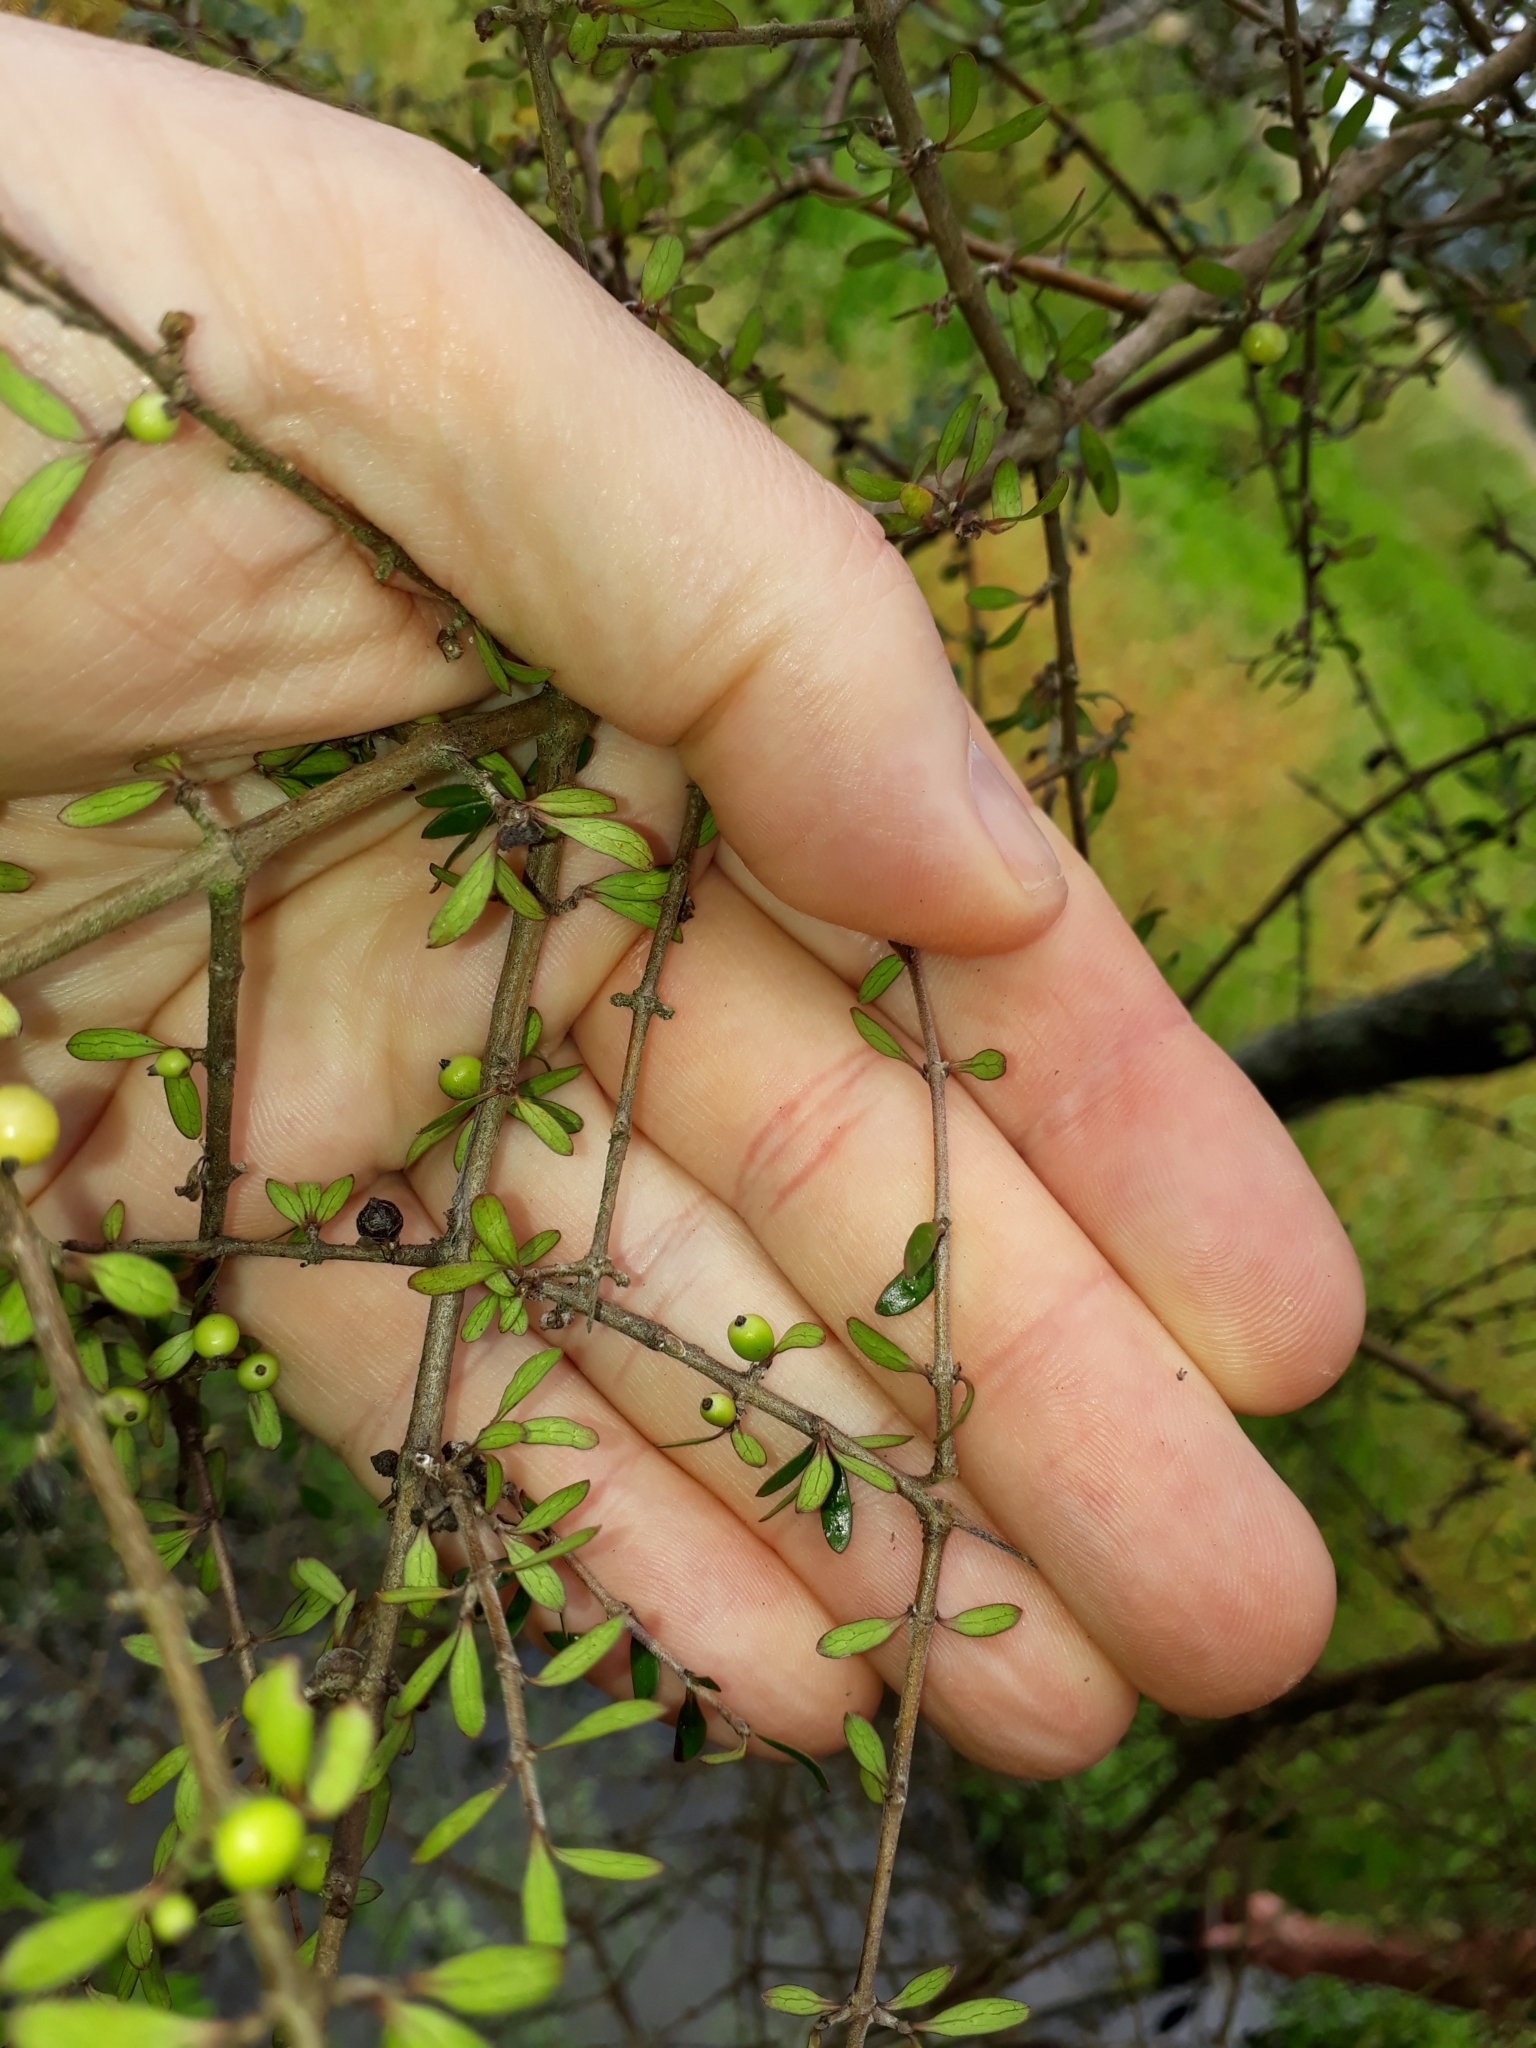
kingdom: Plantae
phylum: Tracheophyta
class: Magnoliopsida
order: Gentianales
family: Rubiaceae
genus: Coprosma
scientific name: Coprosma propinqua
